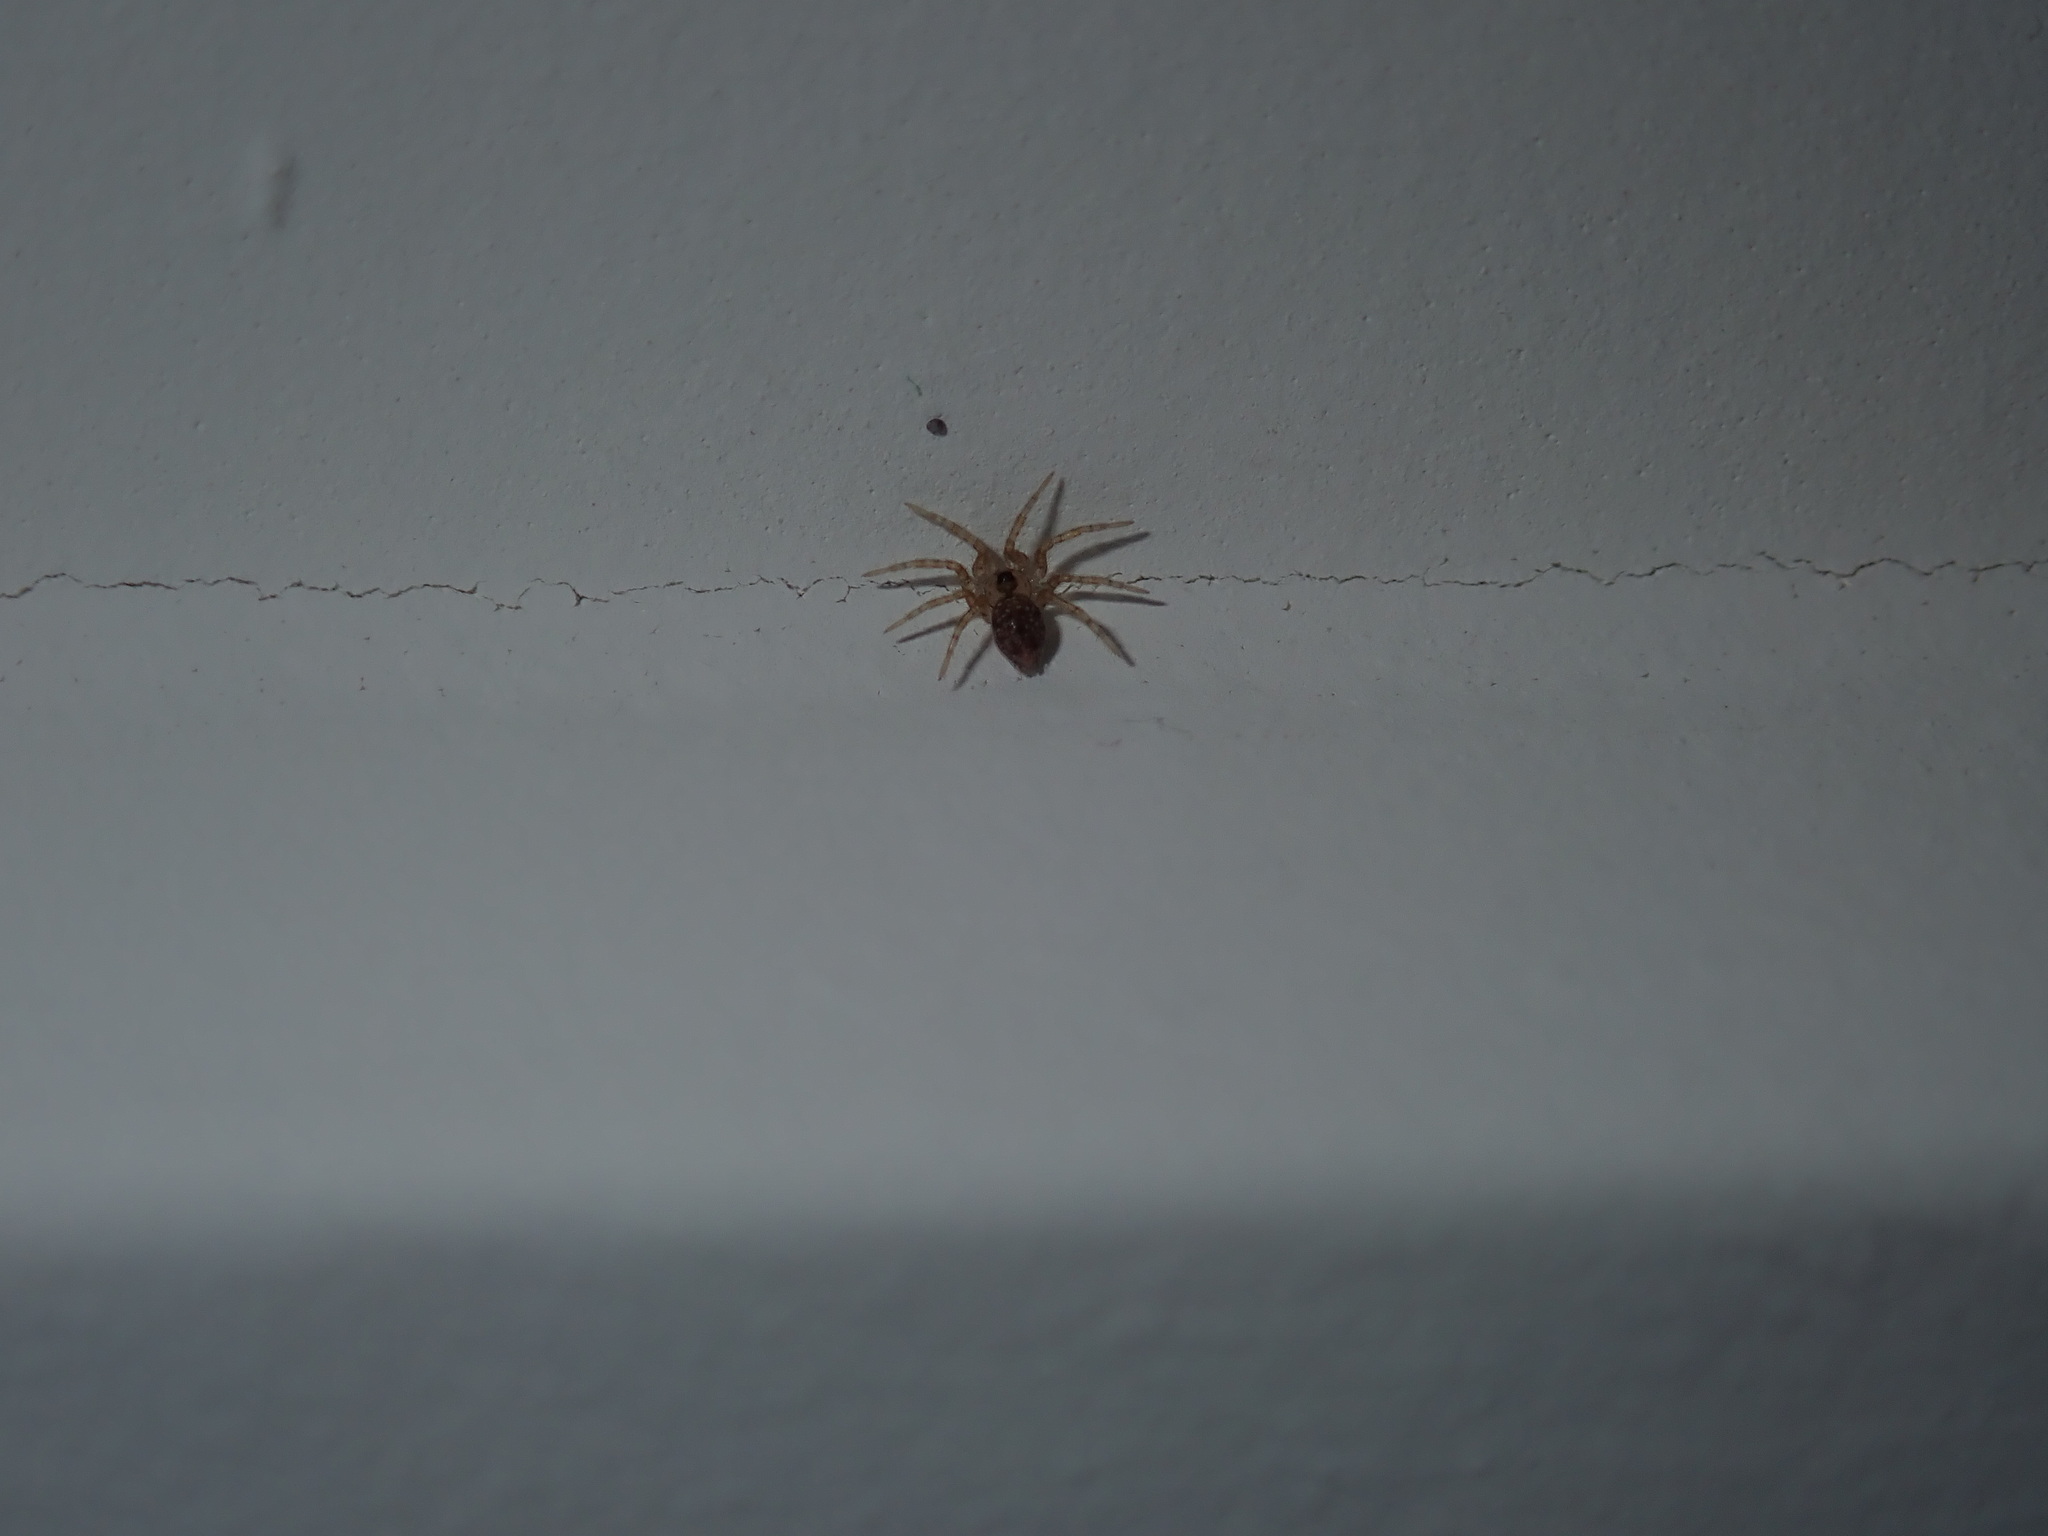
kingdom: Animalia
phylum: Arthropoda
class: Arachnida
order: Araneae
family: Oecobiidae
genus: Oecobius
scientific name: Oecobius navus
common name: Flatmesh weaver
